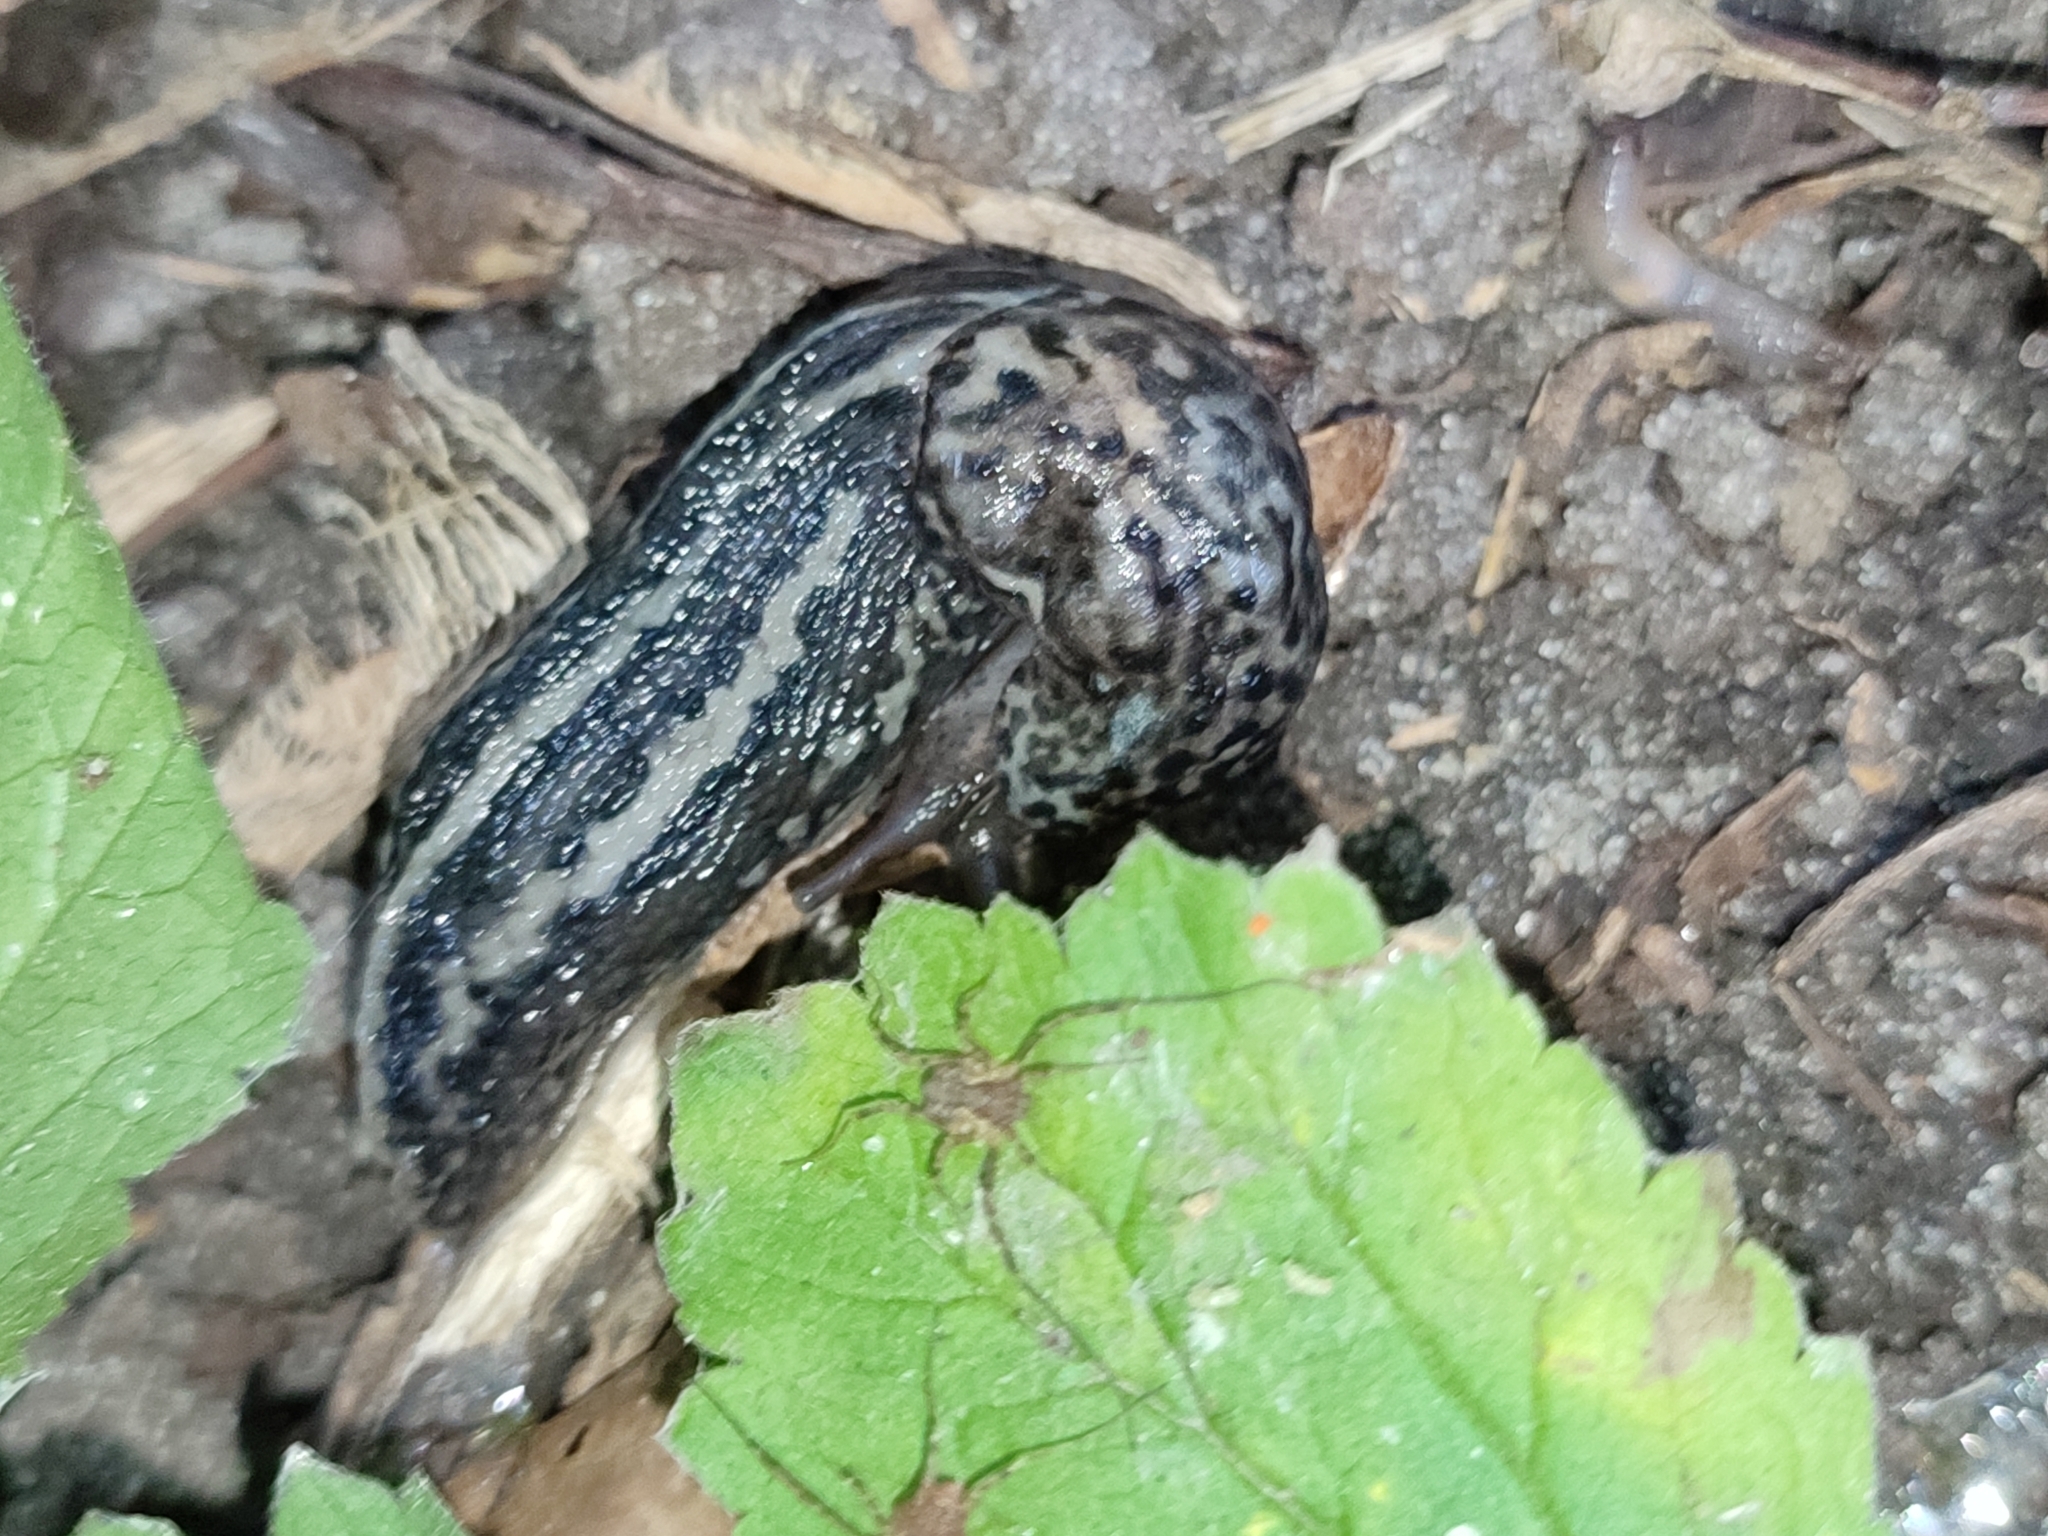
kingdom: Animalia
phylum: Mollusca
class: Gastropoda
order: Stylommatophora
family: Limacidae
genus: Limax
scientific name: Limax maximus
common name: Great grey slug
